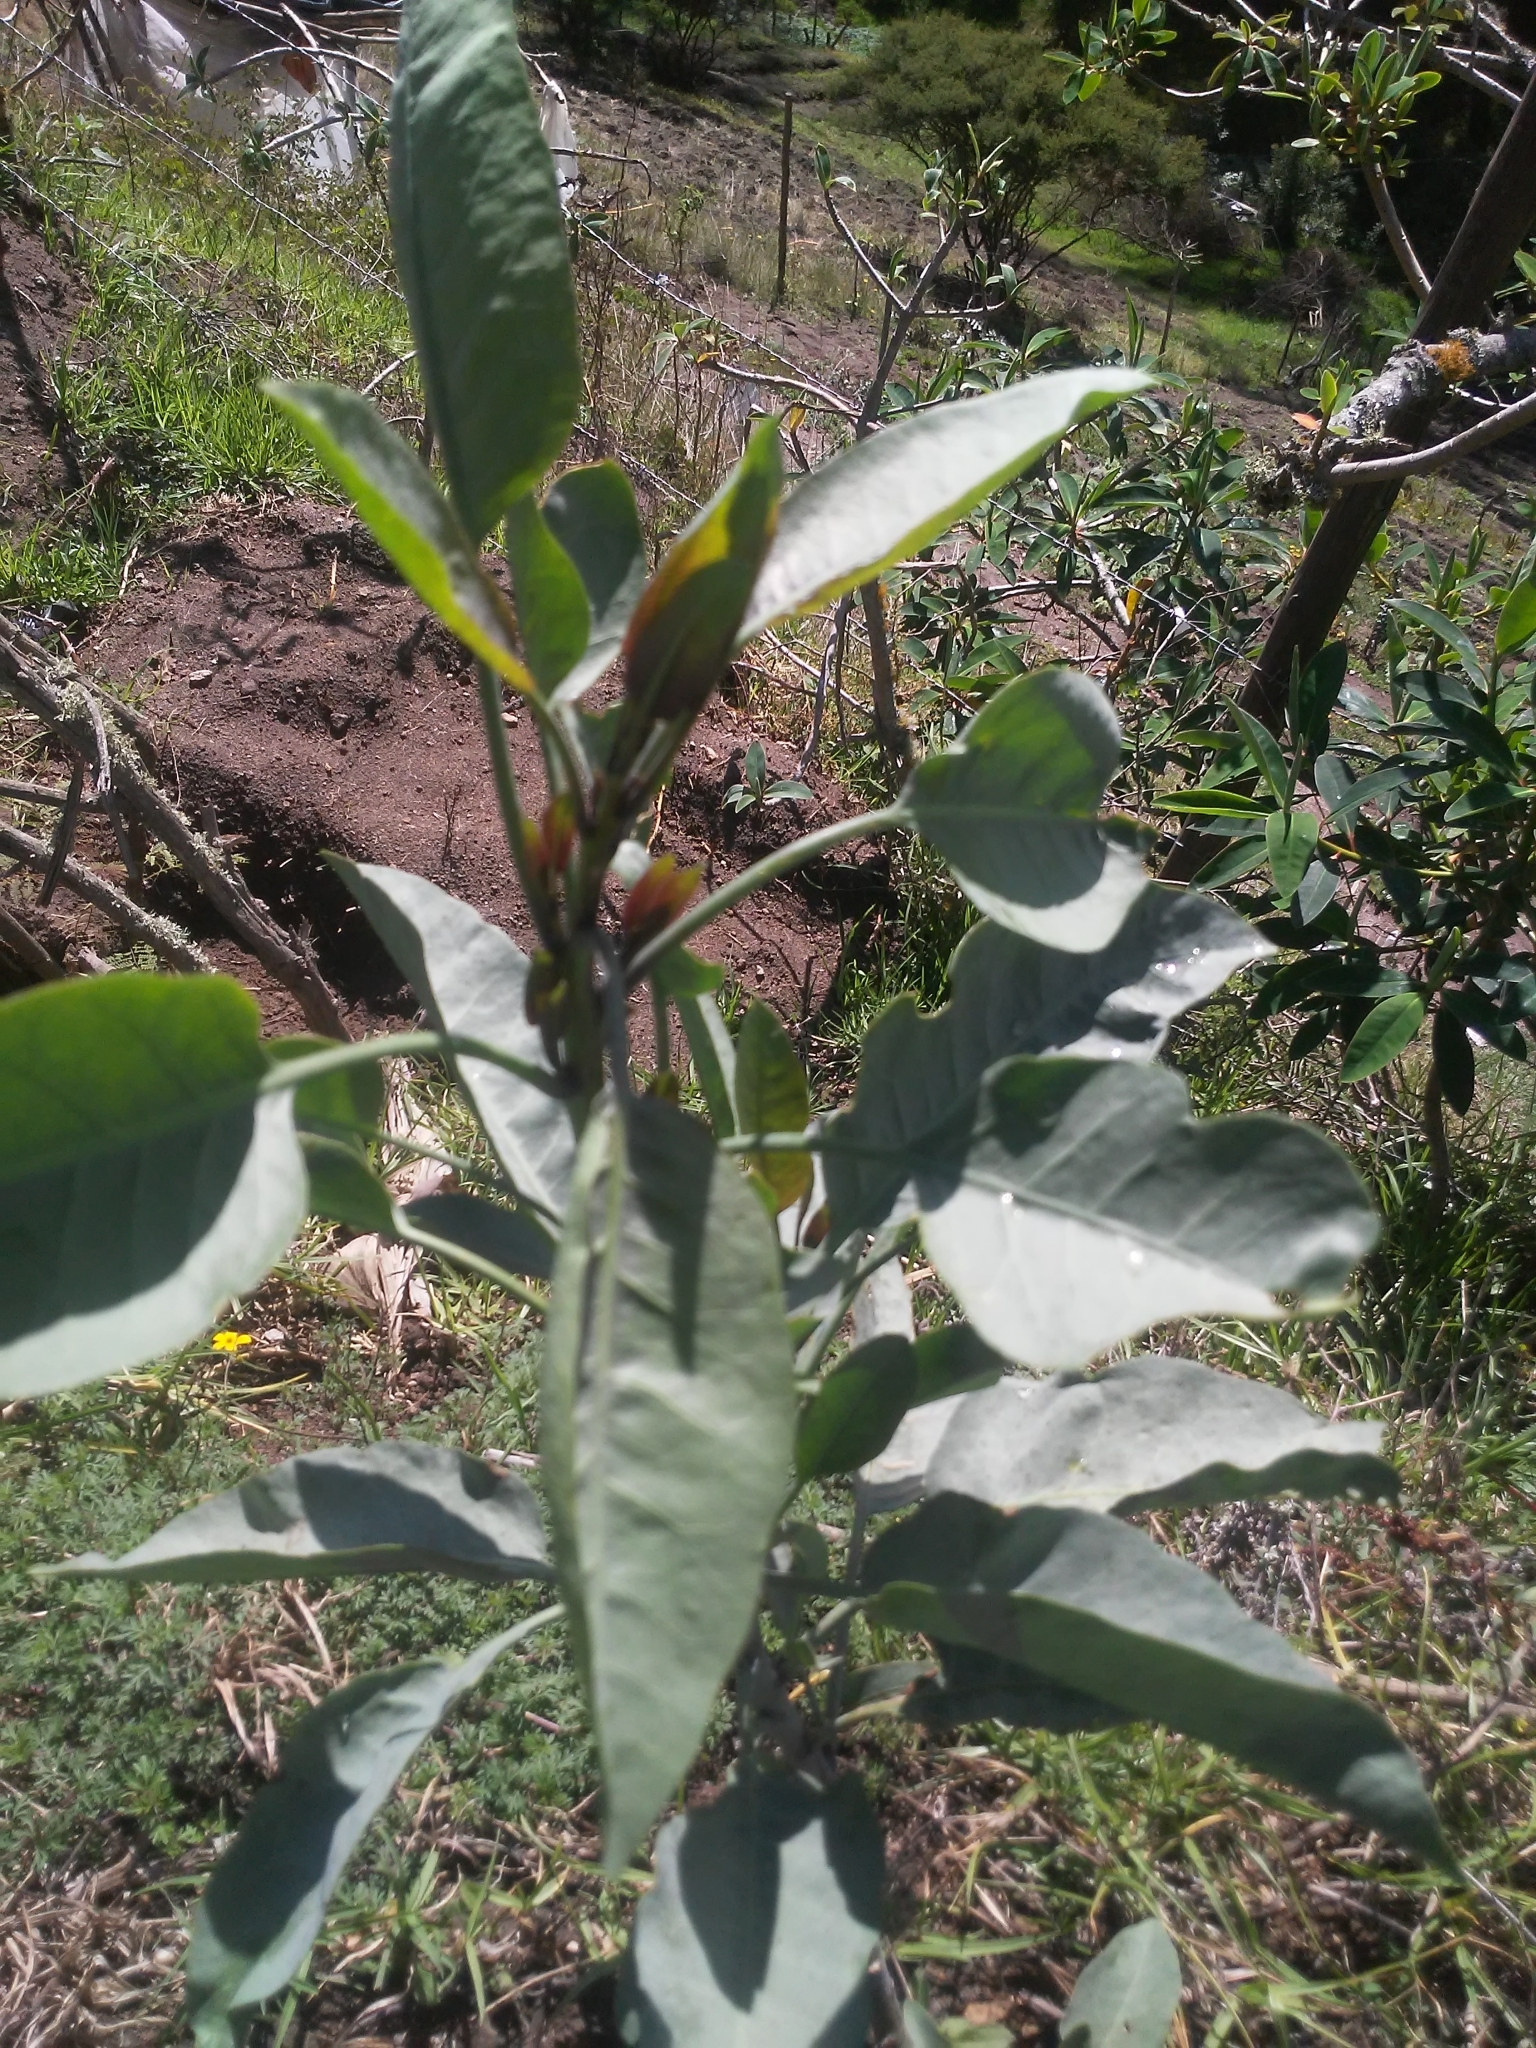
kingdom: Plantae
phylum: Tracheophyta
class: Magnoliopsida
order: Solanales
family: Solanaceae
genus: Nicotiana
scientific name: Nicotiana glauca
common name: Tree tobacco
